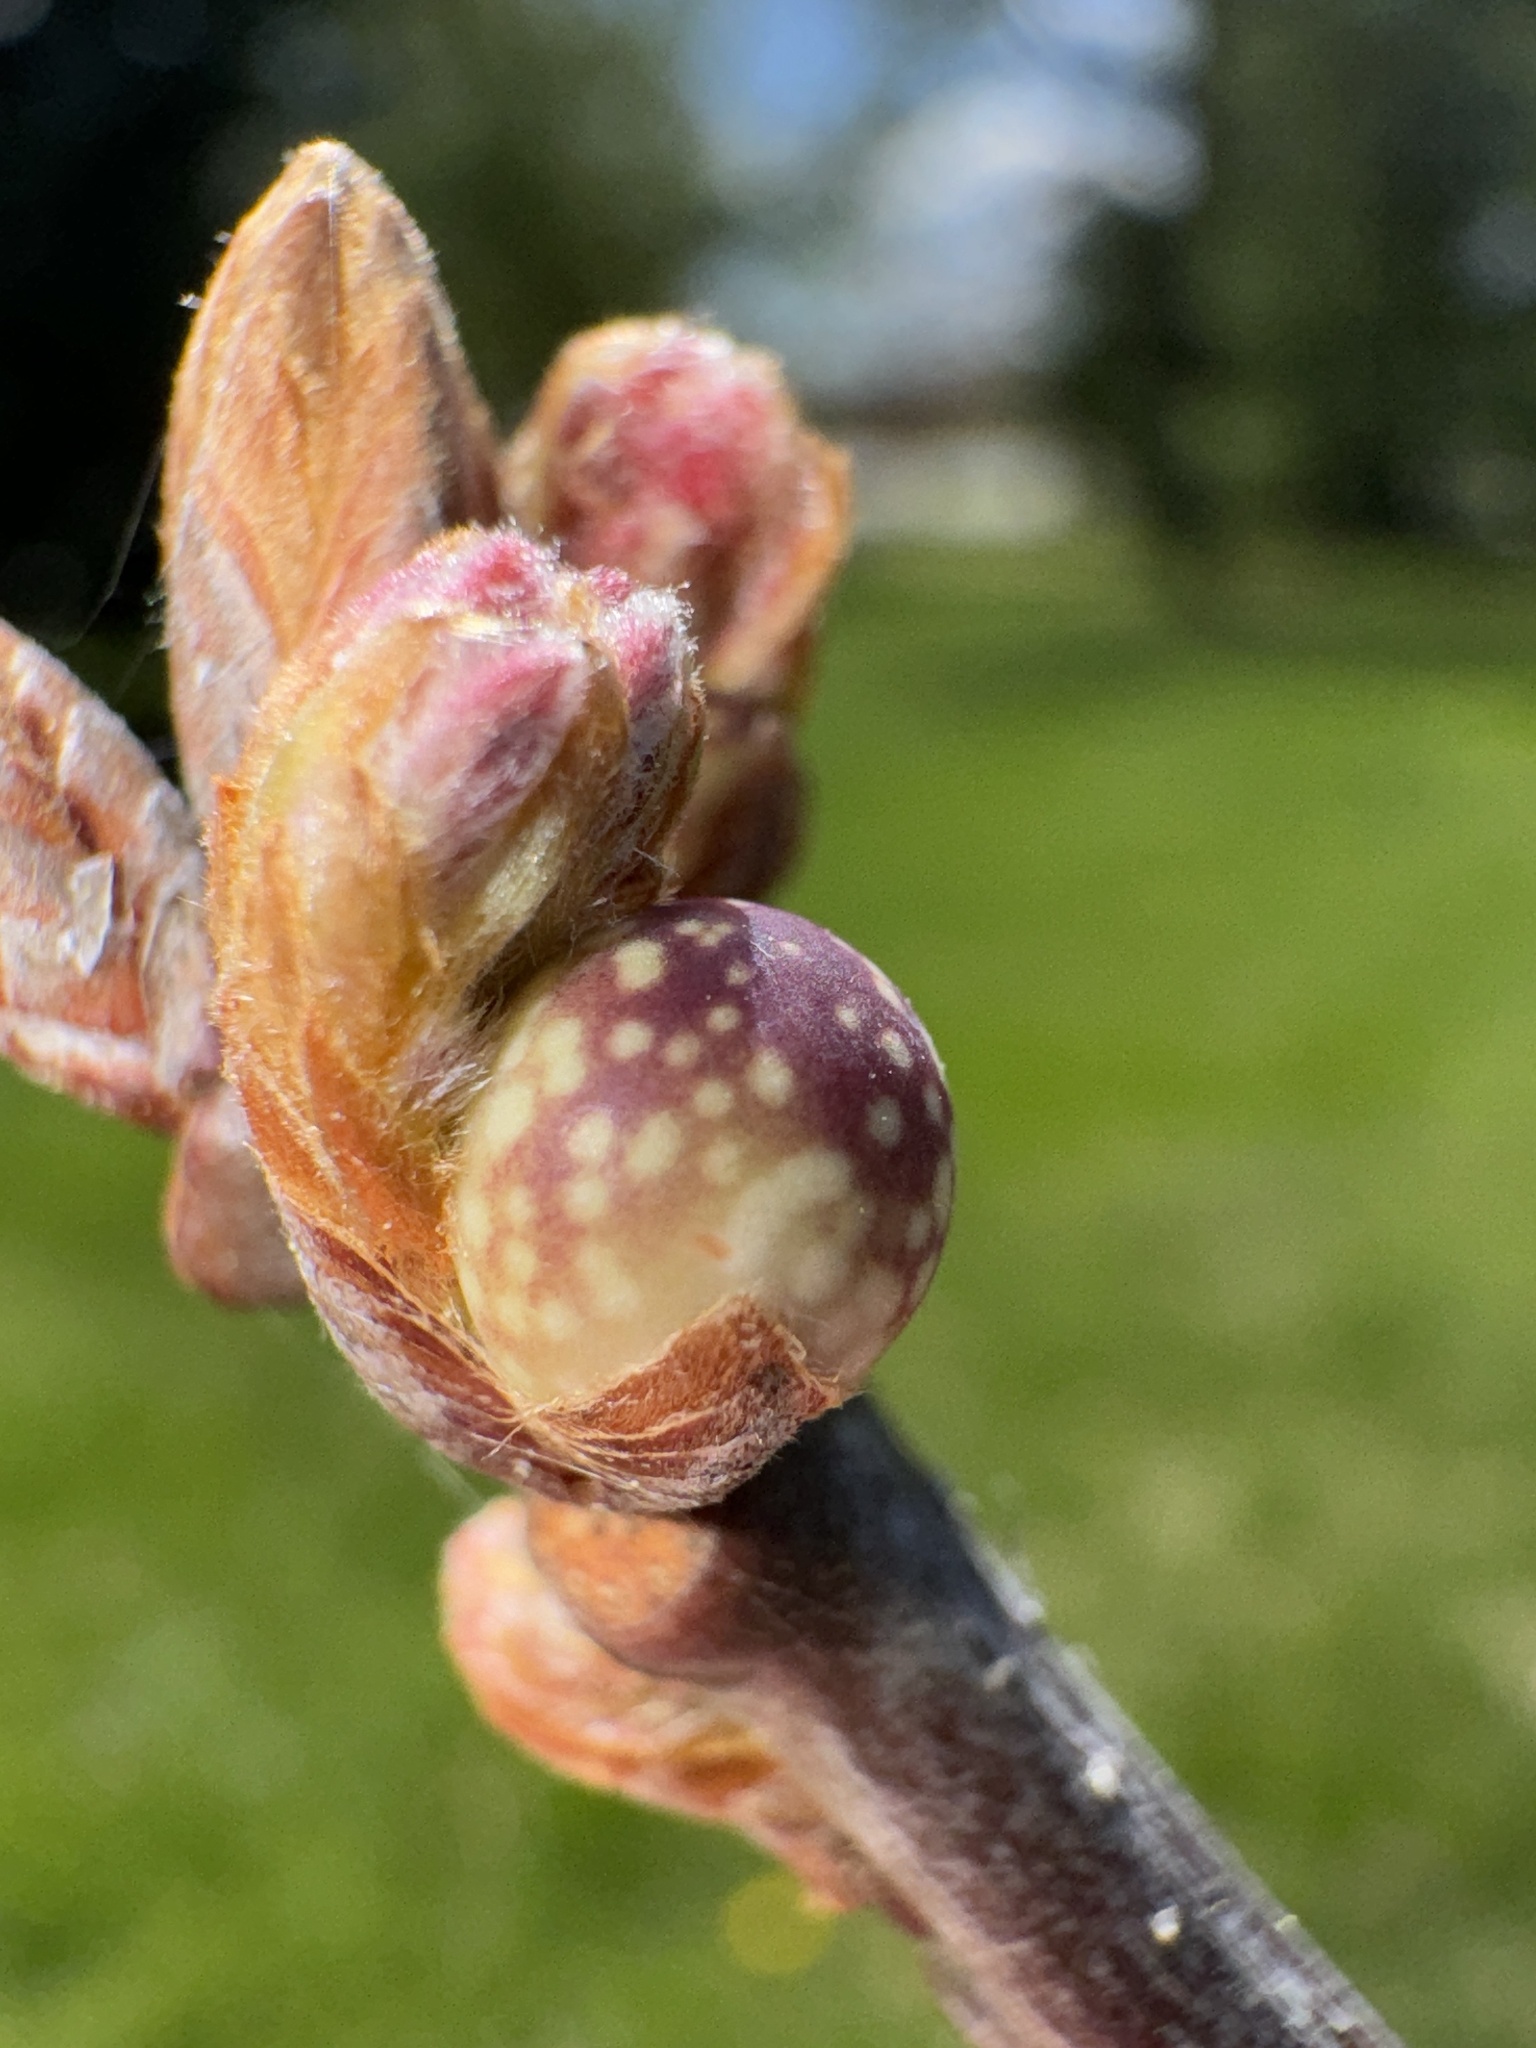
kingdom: Animalia
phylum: Arthropoda
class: Insecta
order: Hymenoptera
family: Cynipidae
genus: Andricus
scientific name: Andricus
